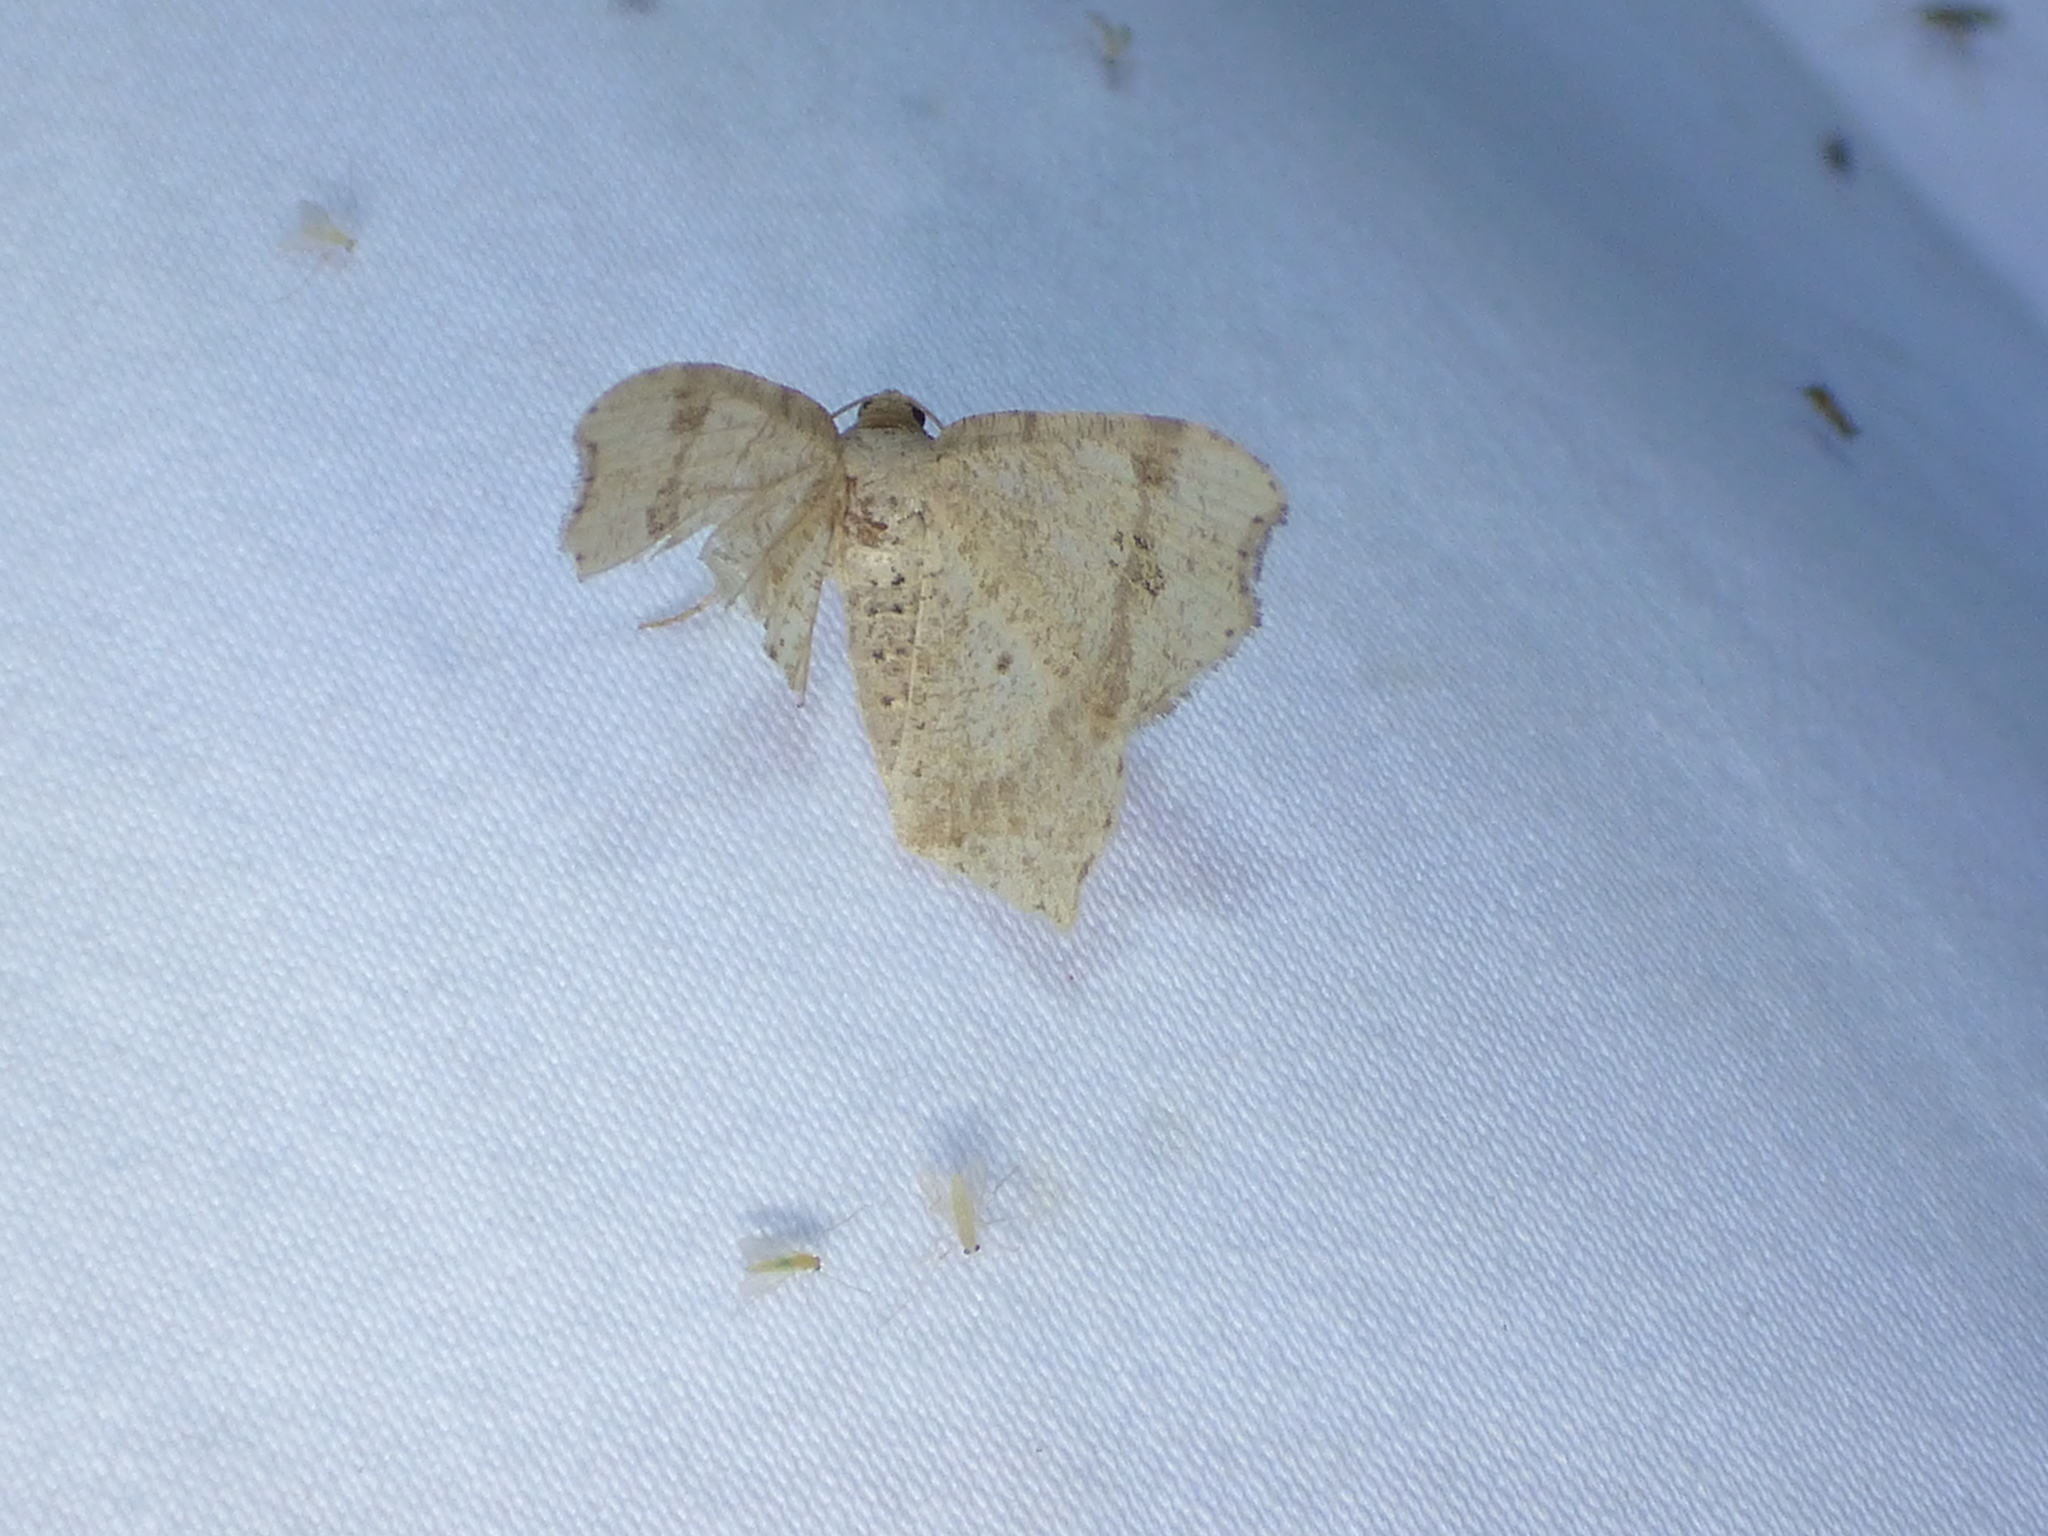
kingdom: Animalia
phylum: Arthropoda
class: Insecta
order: Lepidoptera
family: Geometridae
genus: Macaria
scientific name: Macaria aemulataria
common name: Common angle
